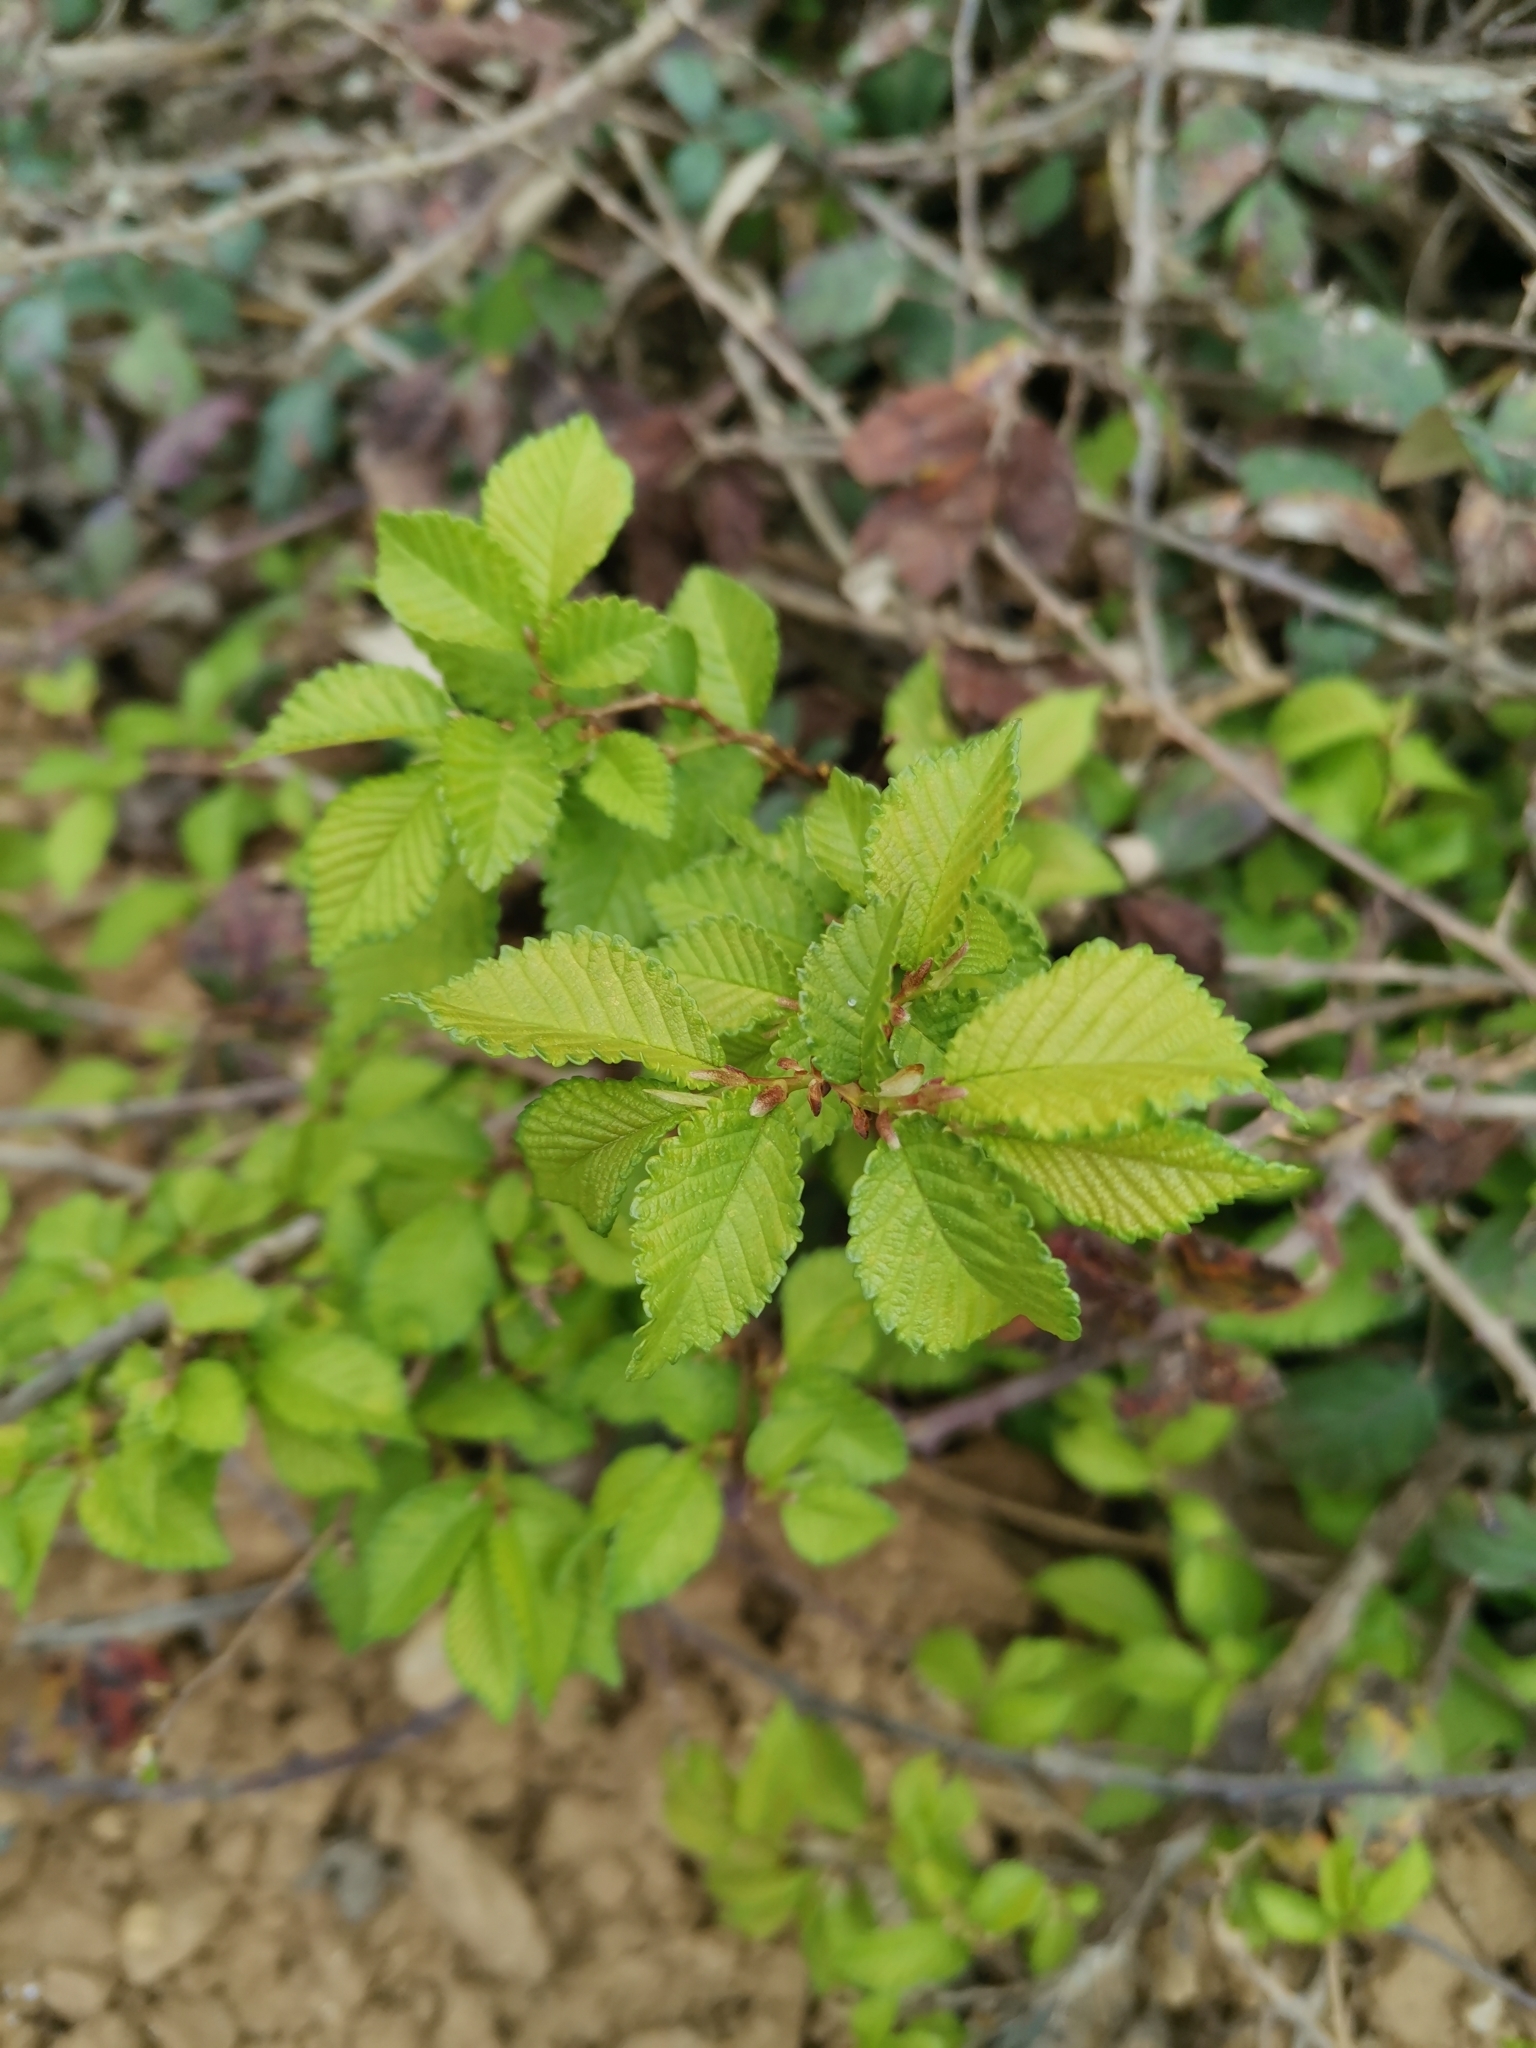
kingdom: Plantae
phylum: Tracheophyta
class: Magnoliopsida
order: Rosales
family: Ulmaceae
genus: Ulmus
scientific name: Ulmus minor
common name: Small-leaved elm
